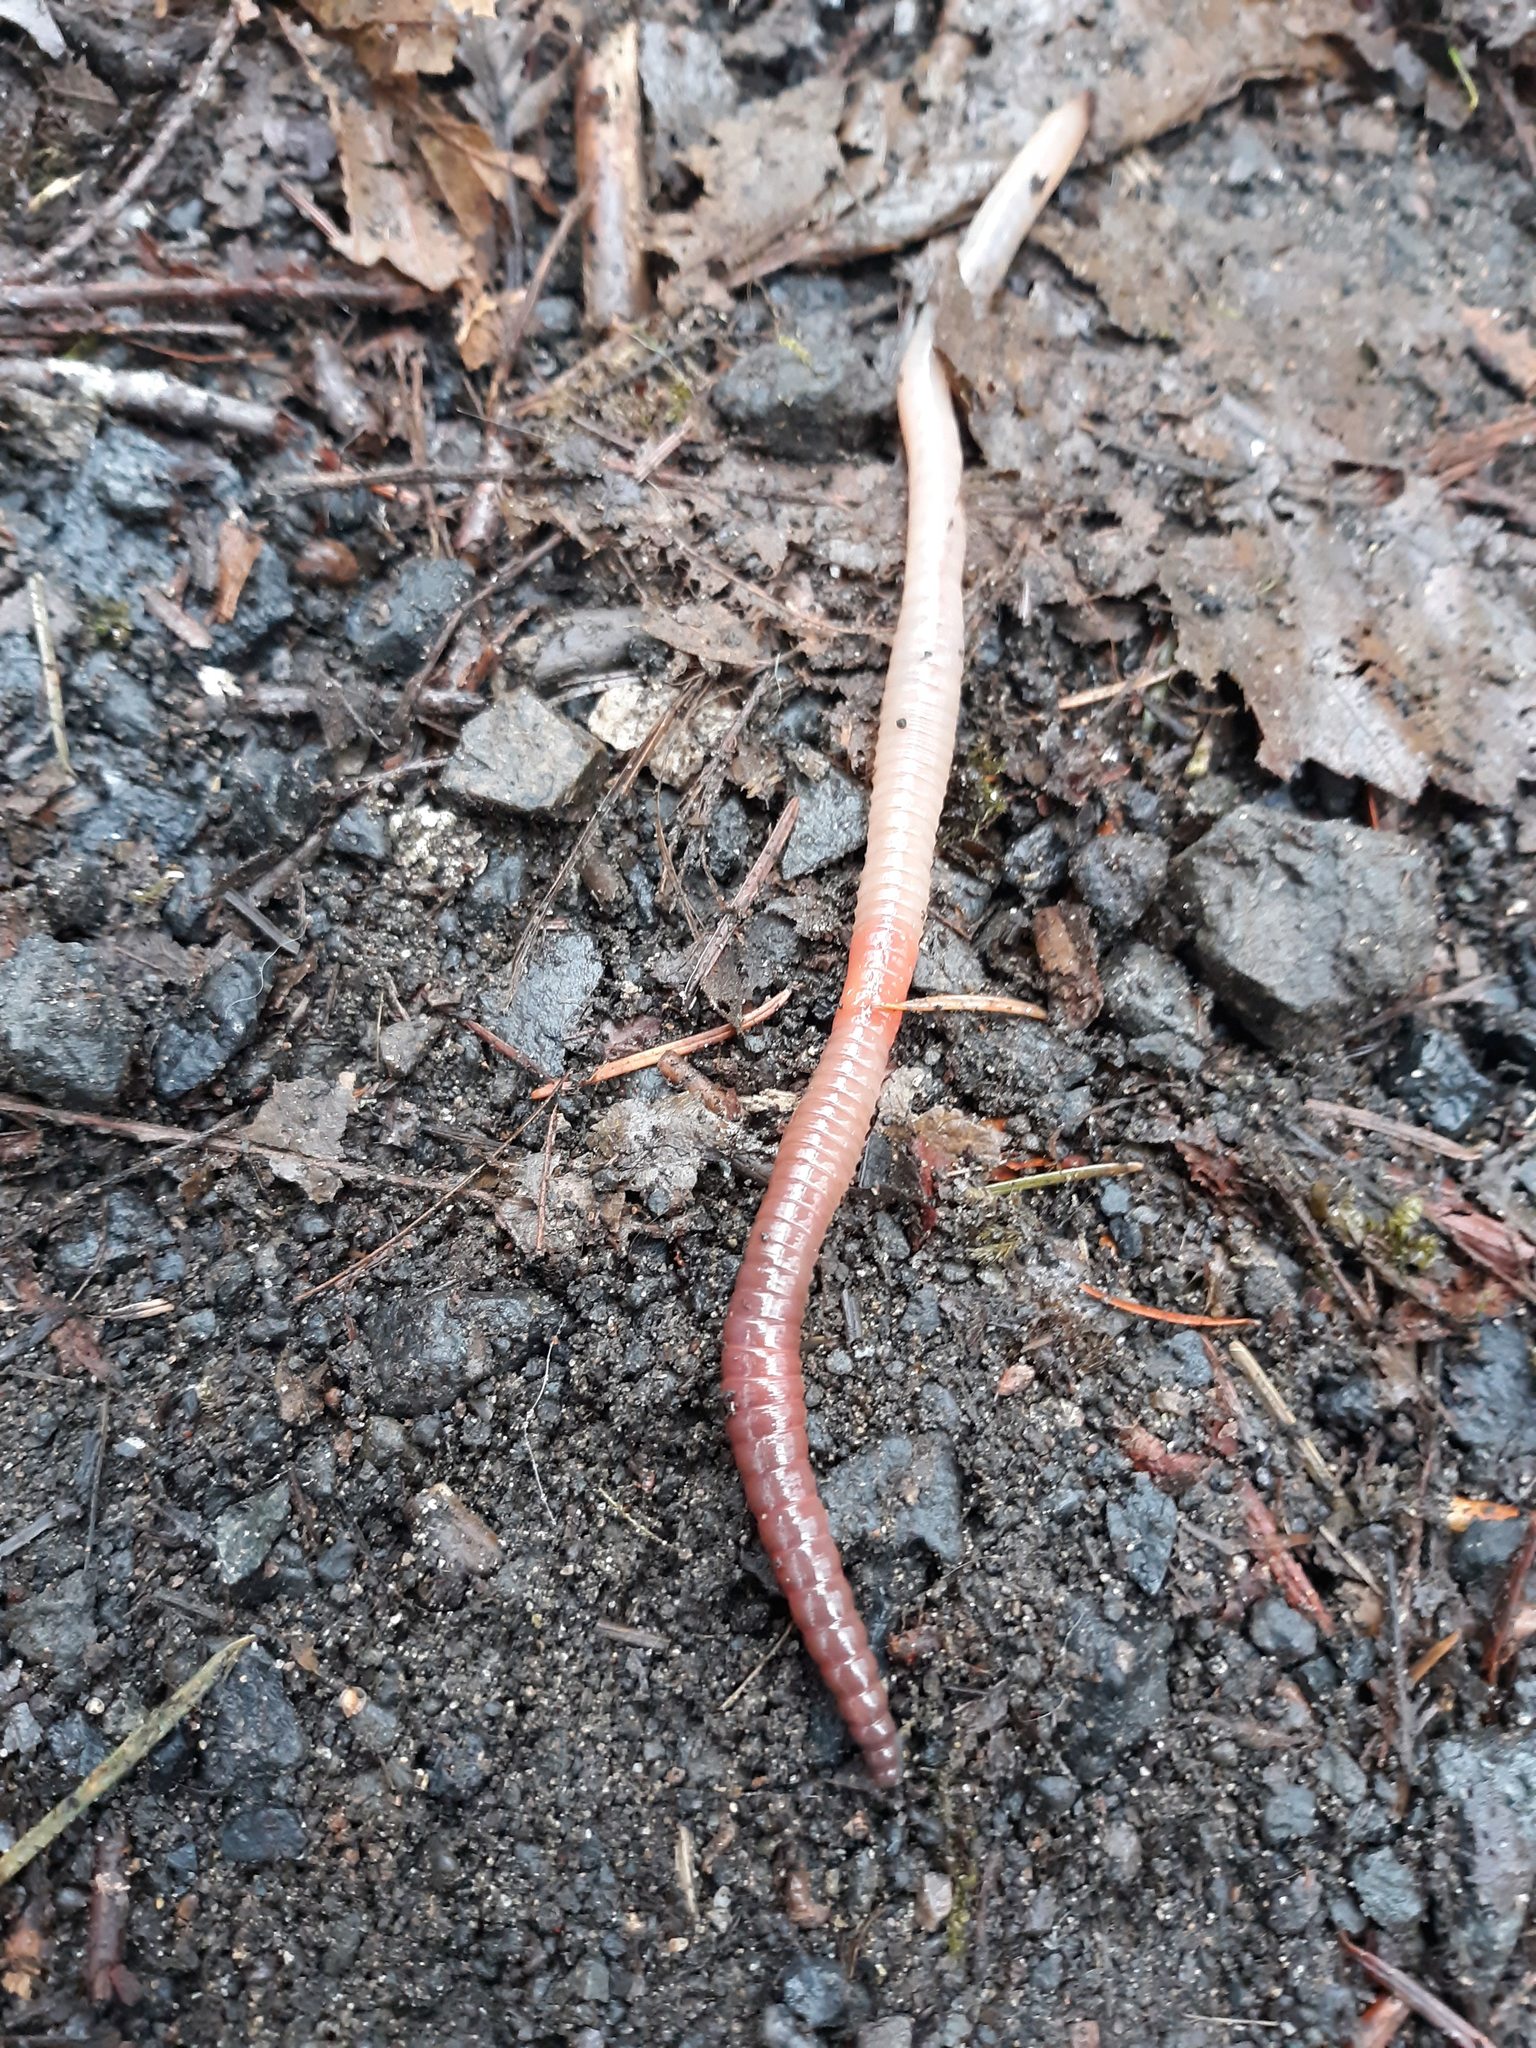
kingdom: Animalia
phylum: Annelida
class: Clitellata
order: Crassiclitellata
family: Lumbricidae
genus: Lumbricus
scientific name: Lumbricus terrestris
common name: Common earthworm
